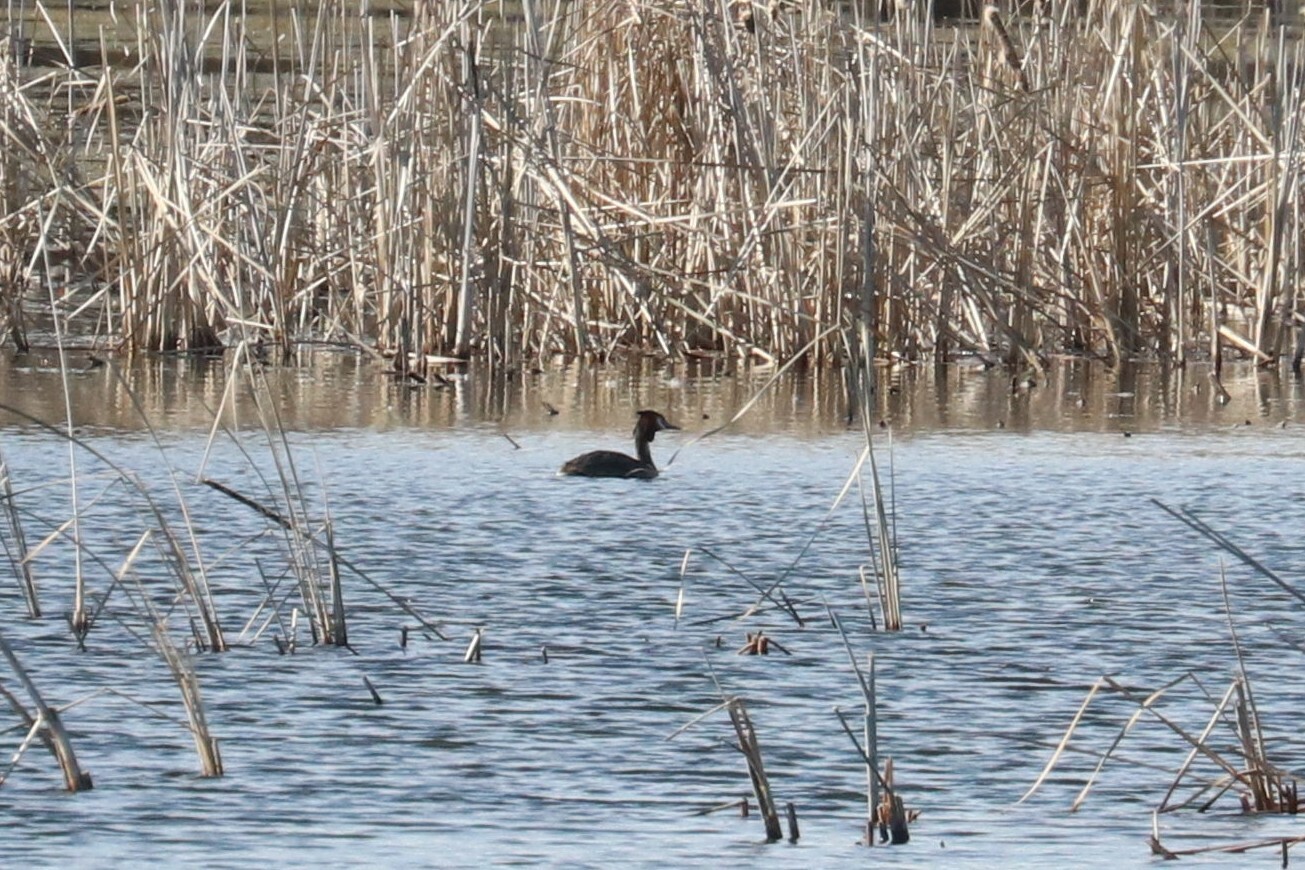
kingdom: Animalia
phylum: Chordata
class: Aves
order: Podicipediformes
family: Podicipedidae
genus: Podiceps
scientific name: Podiceps cristatus
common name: Great crested grebe
